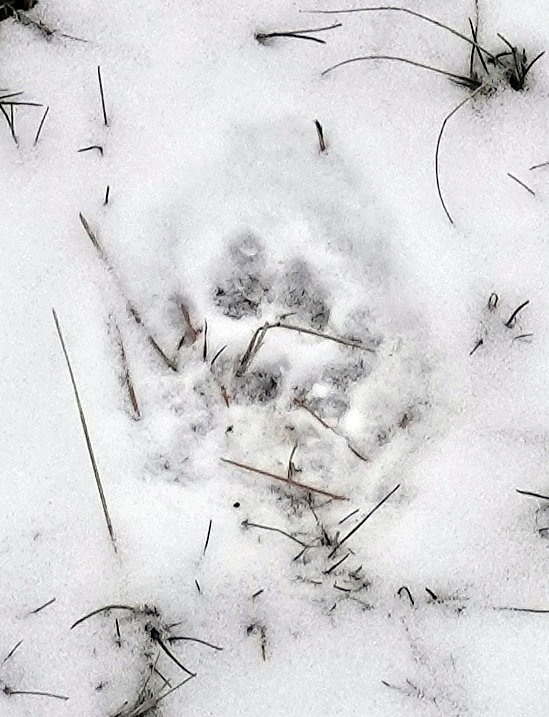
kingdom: Animalia
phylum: Chordata
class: Mammalia
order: Carnivora
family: Felidae
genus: Puma
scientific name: Puma concolor
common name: Puma
